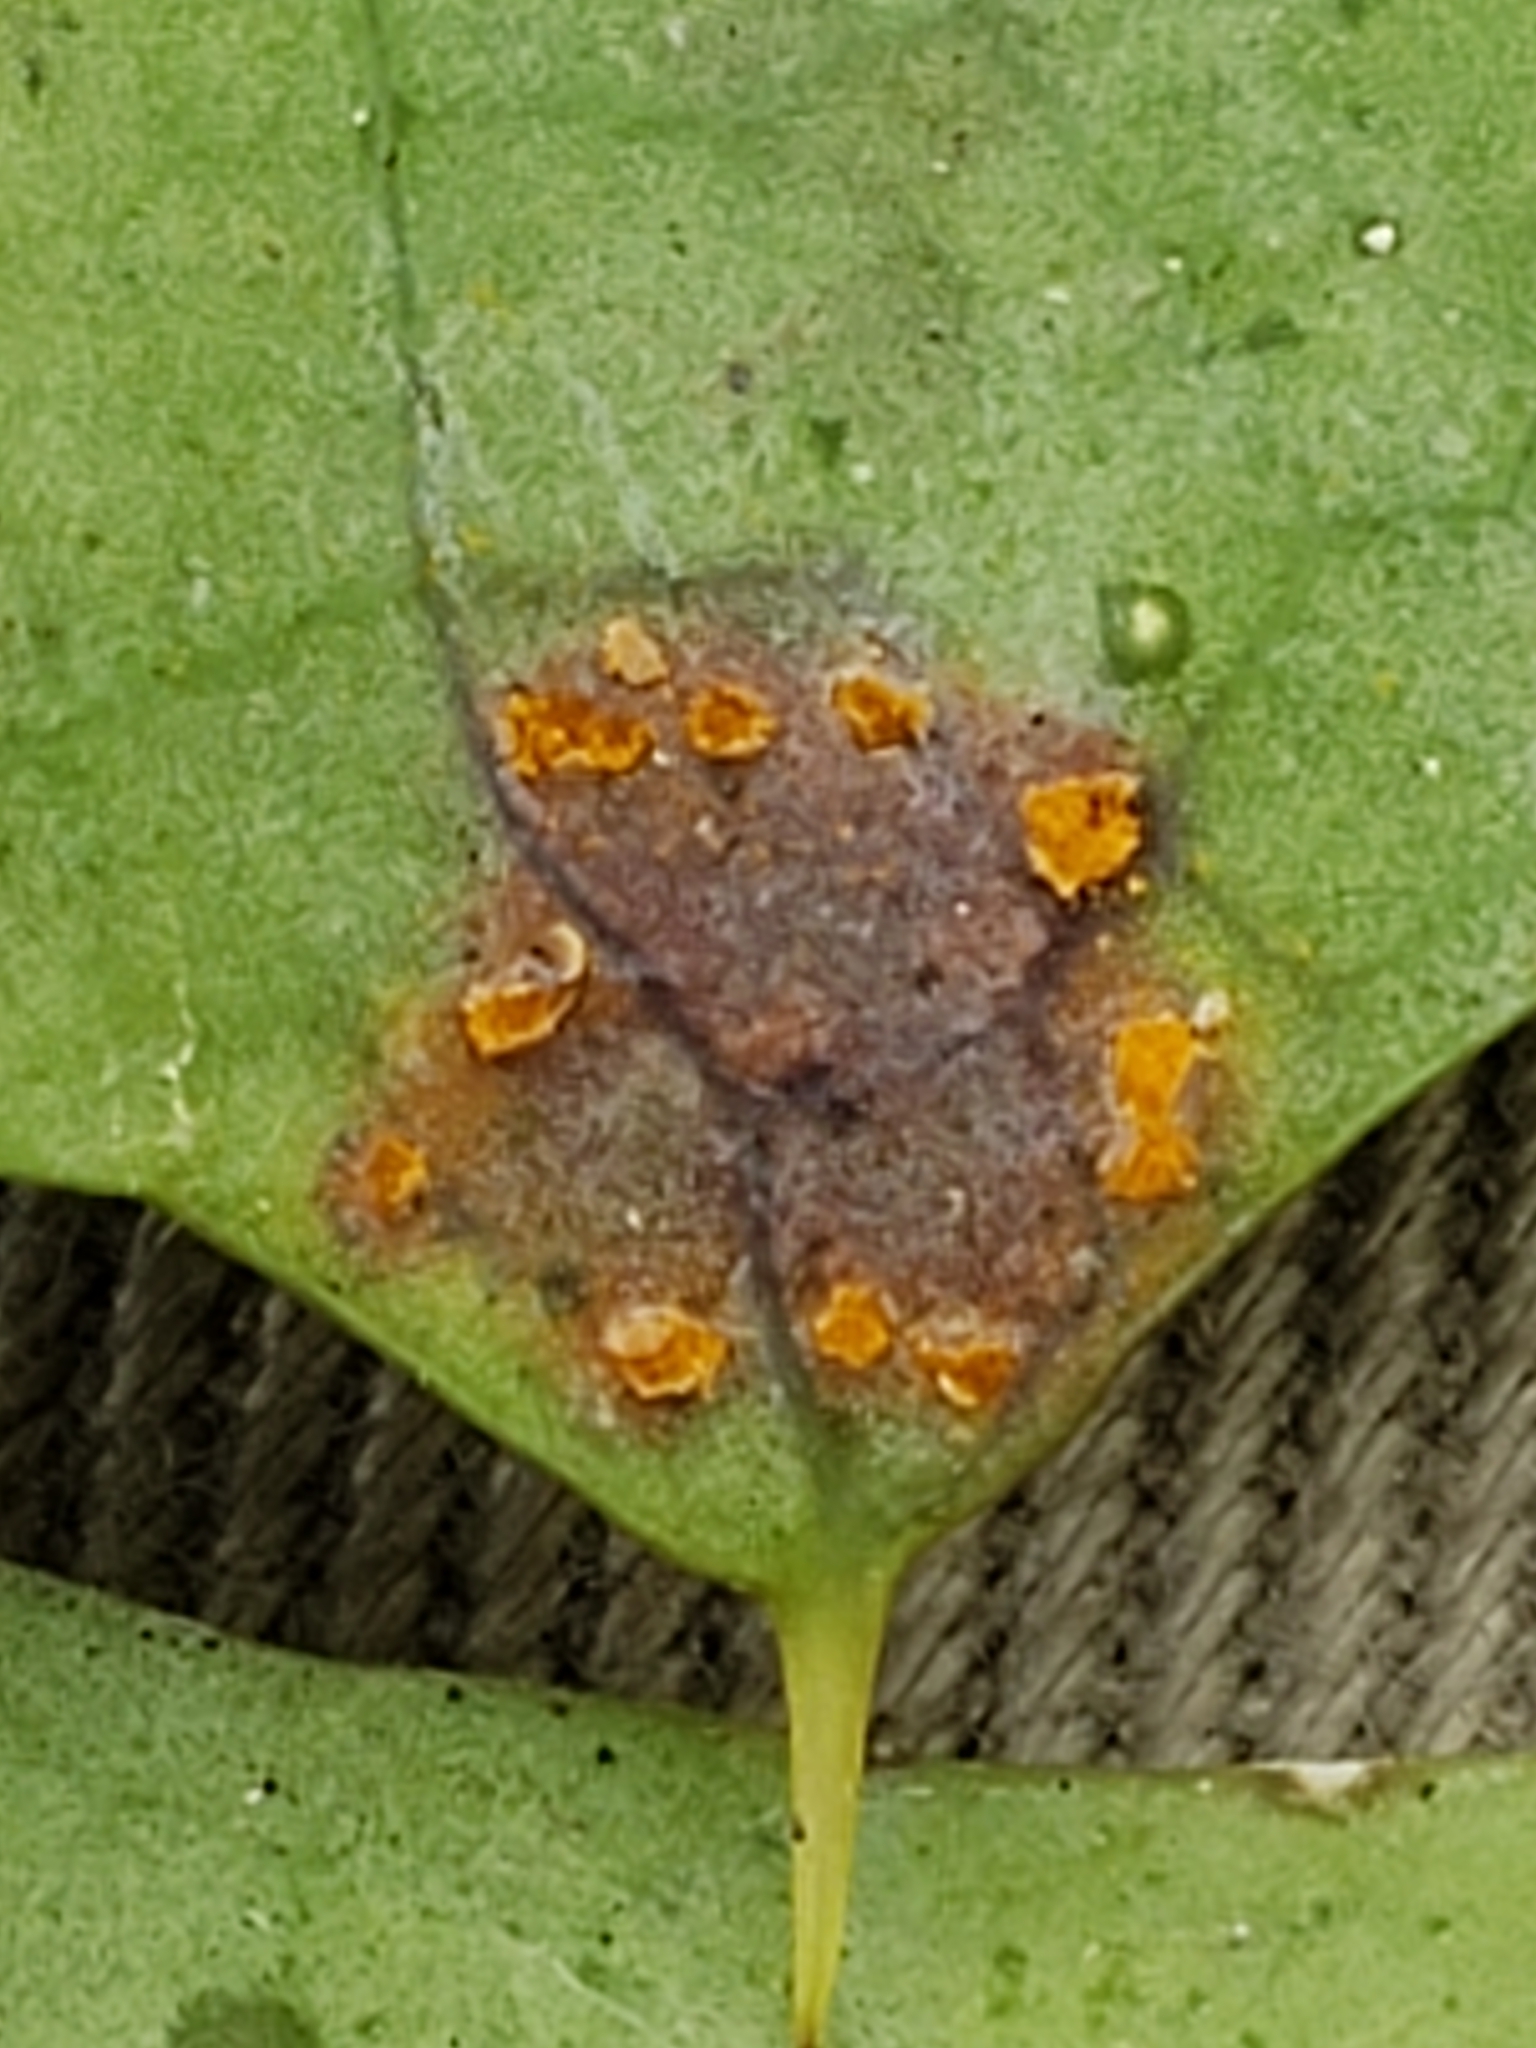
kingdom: Fungi
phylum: Basidiomycota
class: Pucciniomycetes
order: Pucciniales
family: Coleosporiaceae
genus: Chrysomyxa
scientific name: Chrysomyxa ilicina
